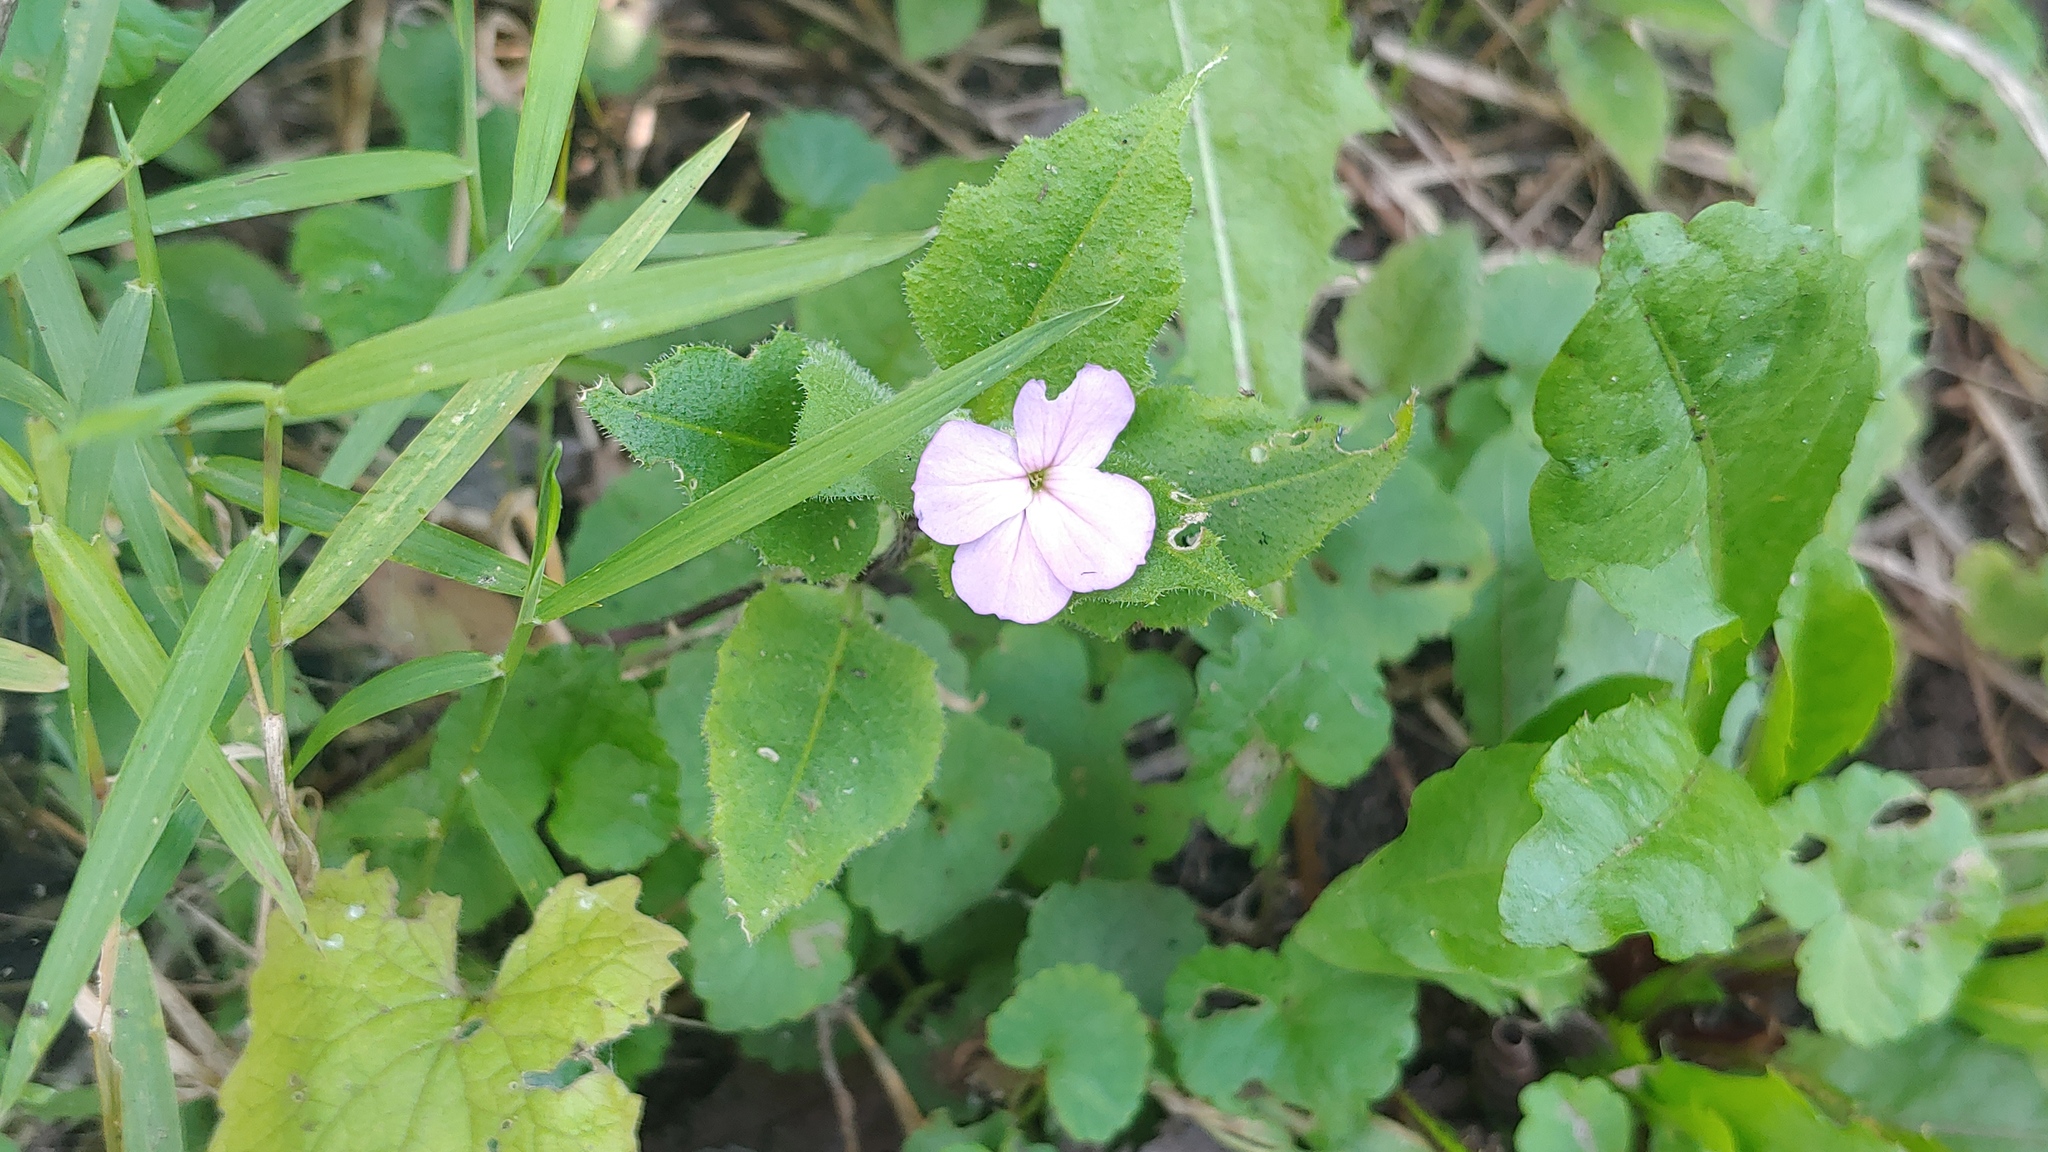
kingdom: Plantae
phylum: Tracheophyta
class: Magnoliopsida
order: Brassicales
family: Brassicaceae
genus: Hesperis
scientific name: Hesperis matronalis
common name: Dame's-violet
